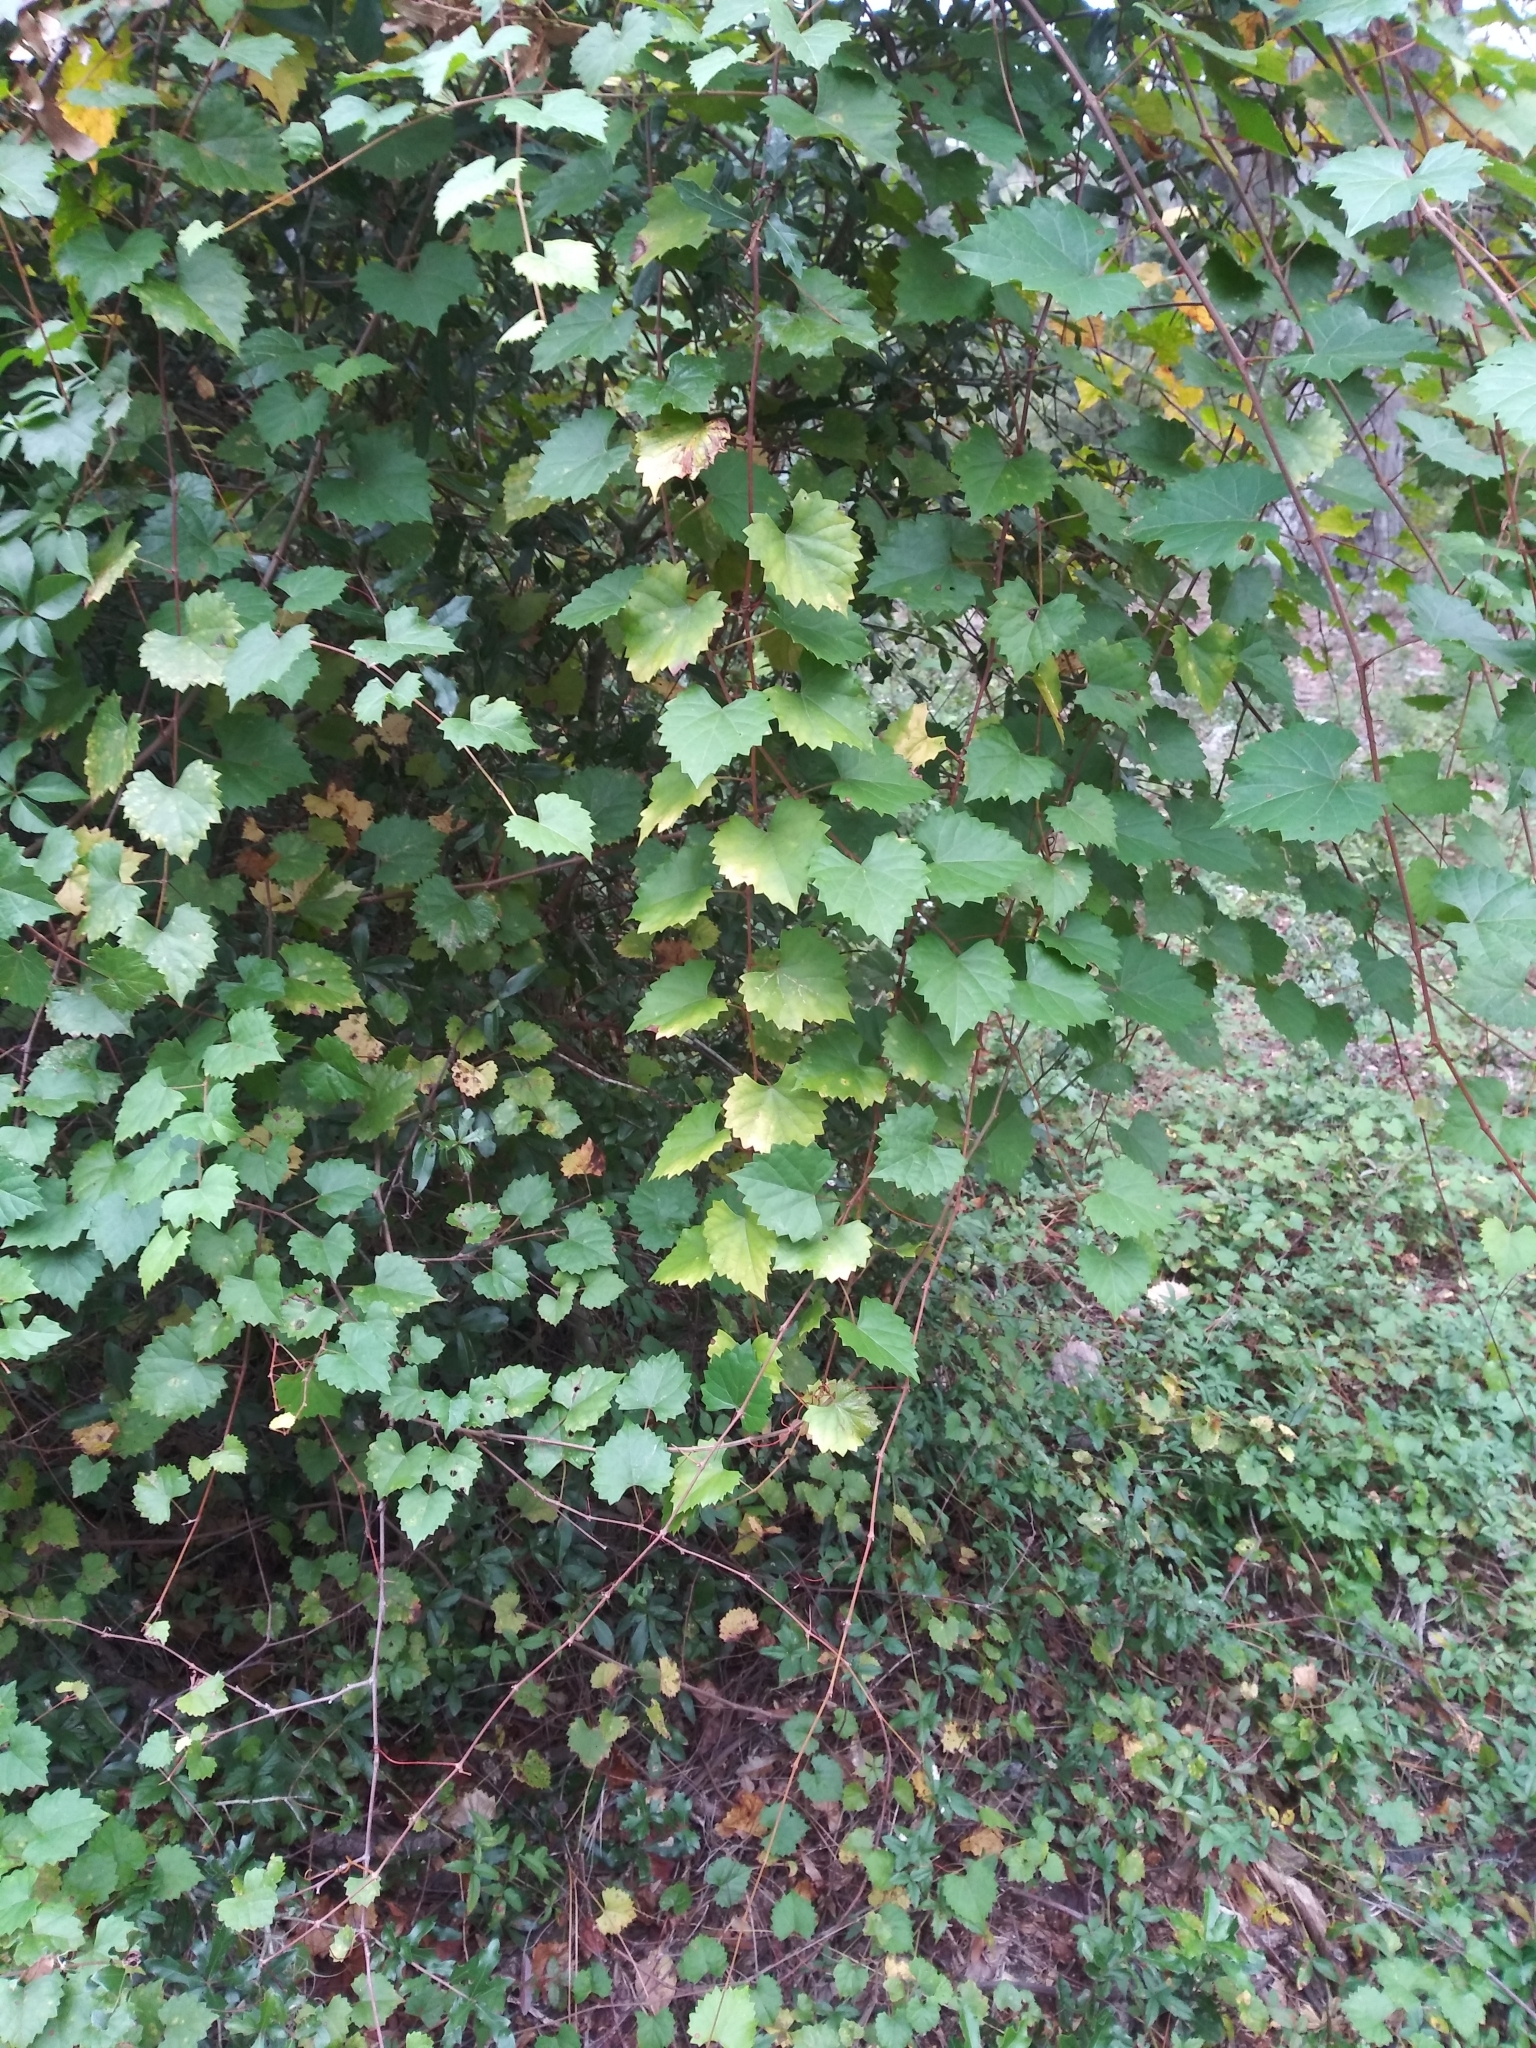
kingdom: Plantae
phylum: Tracheophyta
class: Magnoliopsida
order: Vitales
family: Vitaceae
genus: Vitis
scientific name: Vitis rotundifolia
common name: Muscadine grape
